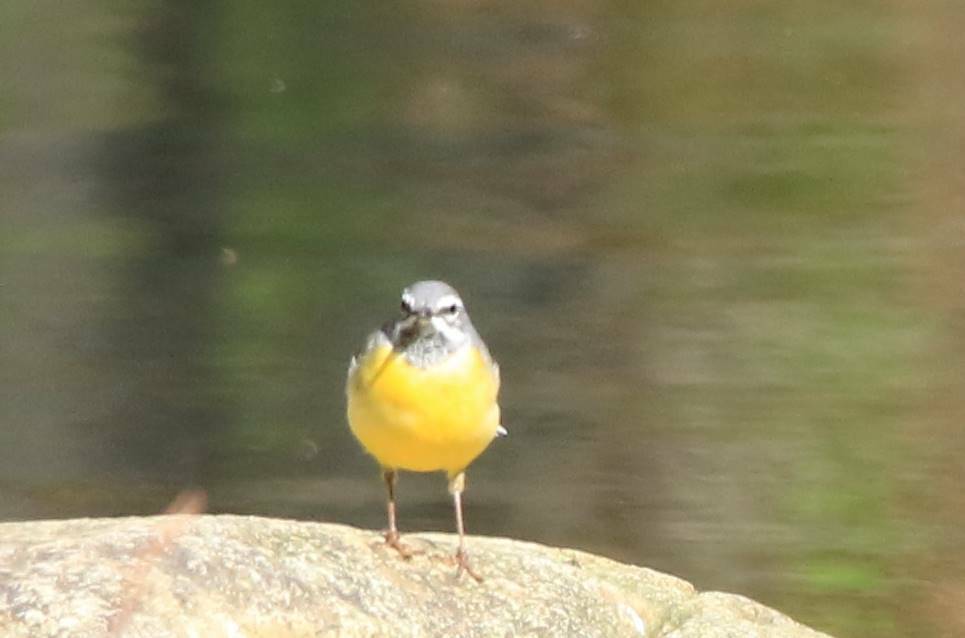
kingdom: Animalia
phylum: Chordata
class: Aves
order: Passeriformes
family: Motacillidae
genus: Motacilla
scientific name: Motacilla cinerea
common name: Grey wagtail
